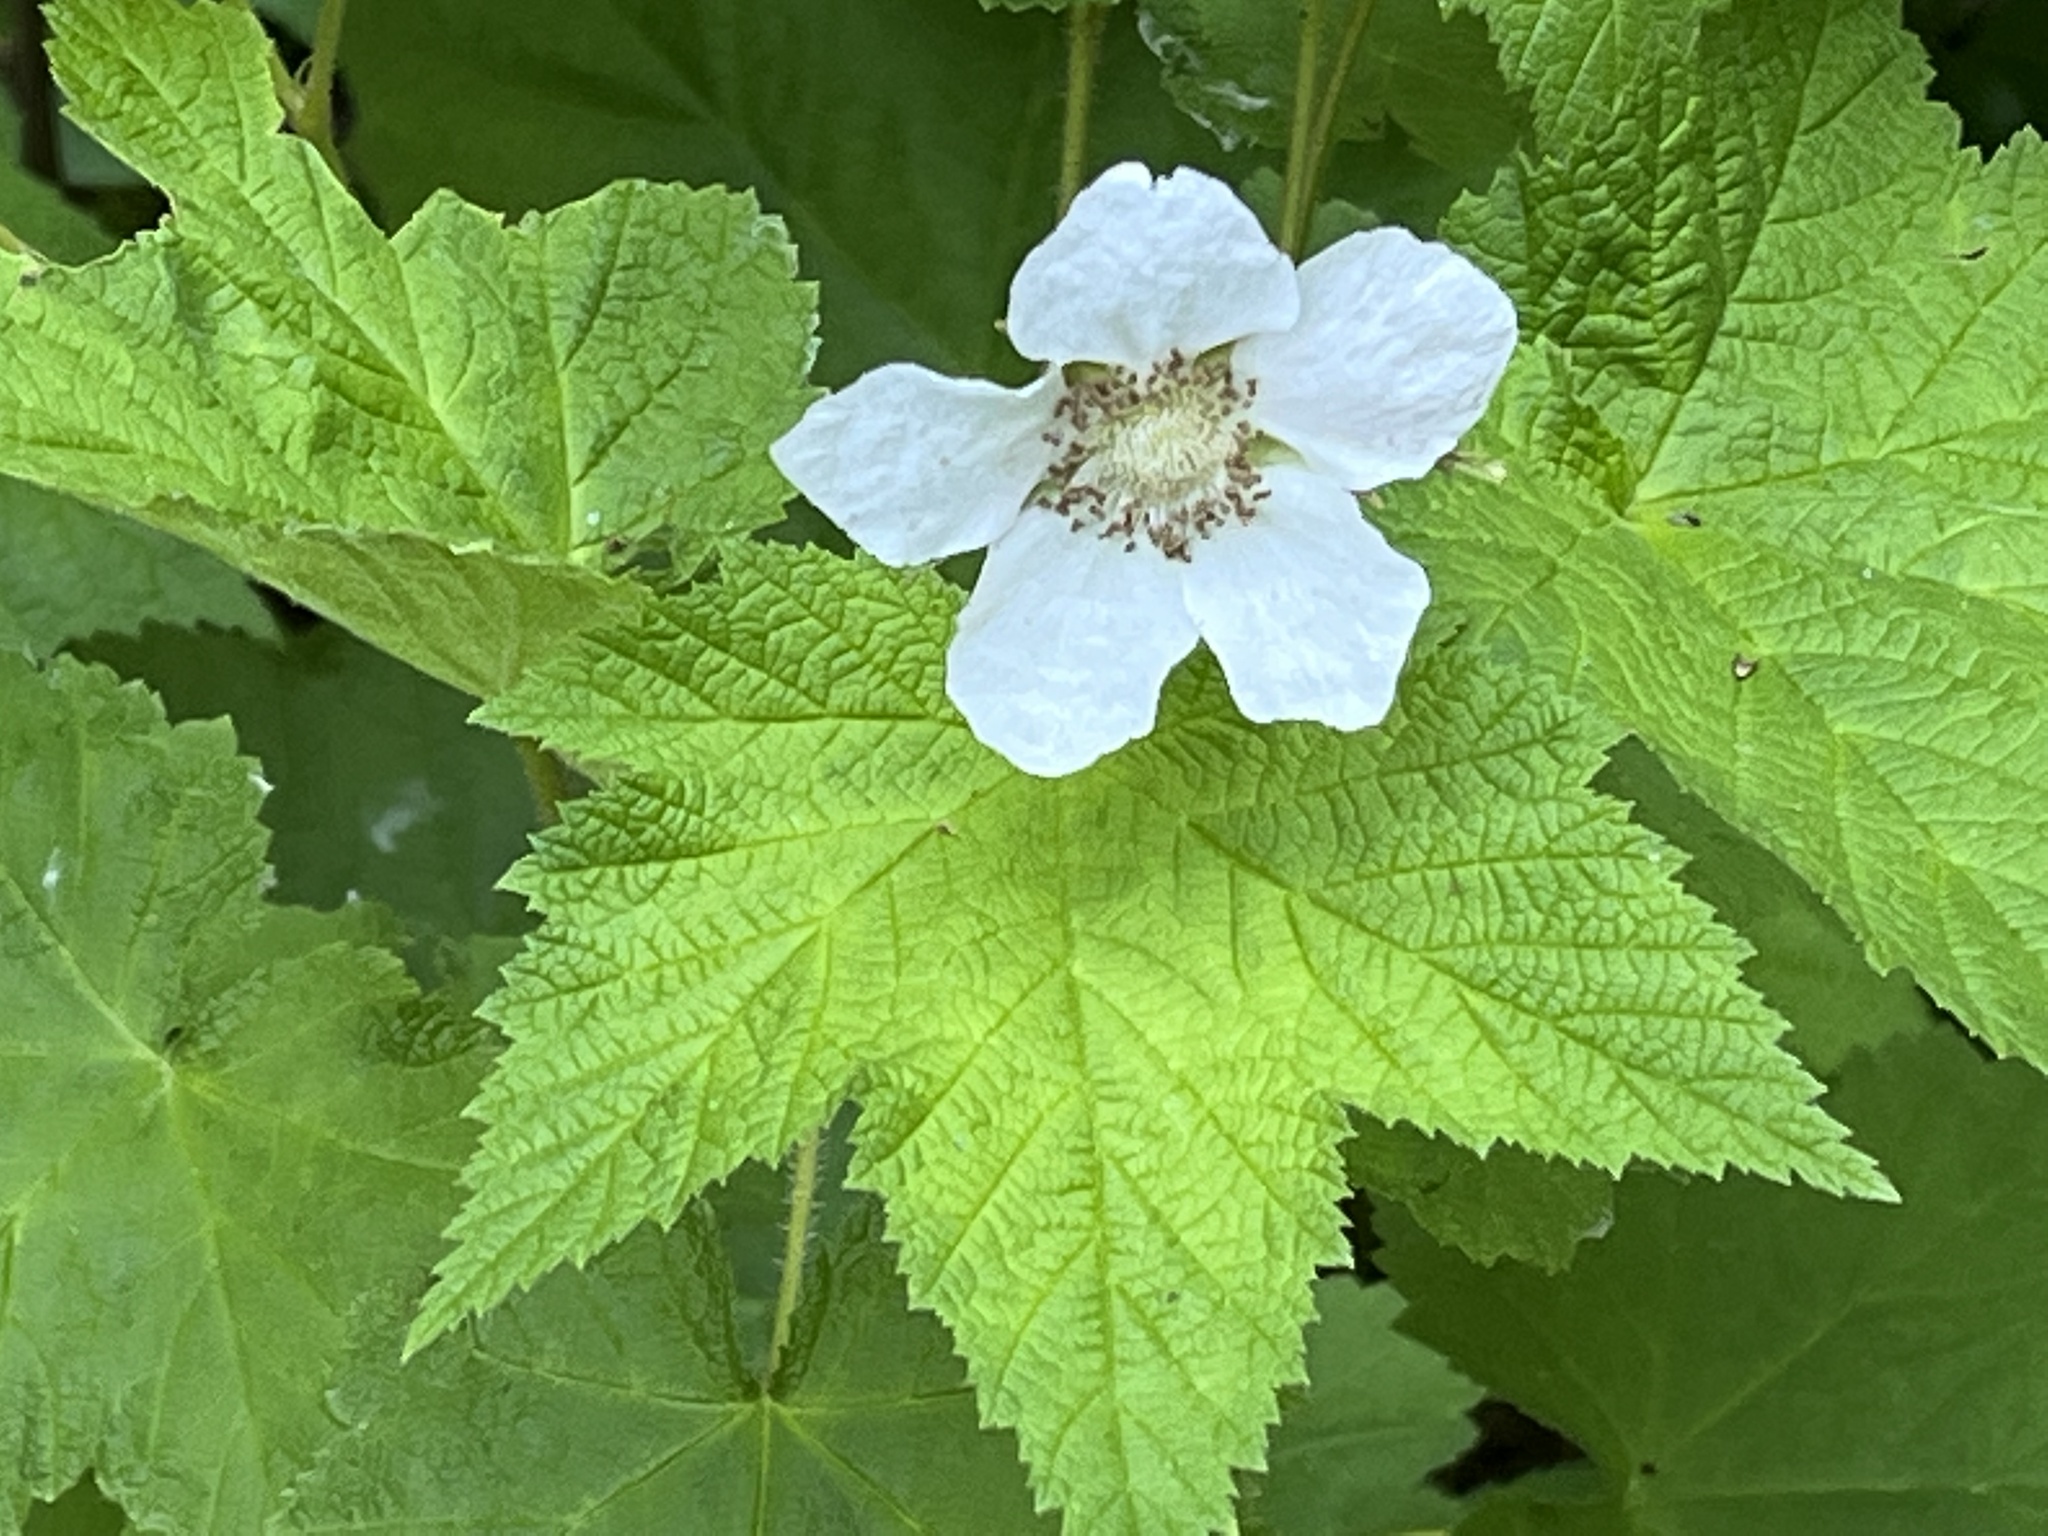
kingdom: Plantae
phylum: Tracheophyta
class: Magnoliopsida
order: Rosales
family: Rosaceae
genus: Rubus
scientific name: Rubus parviflorus
